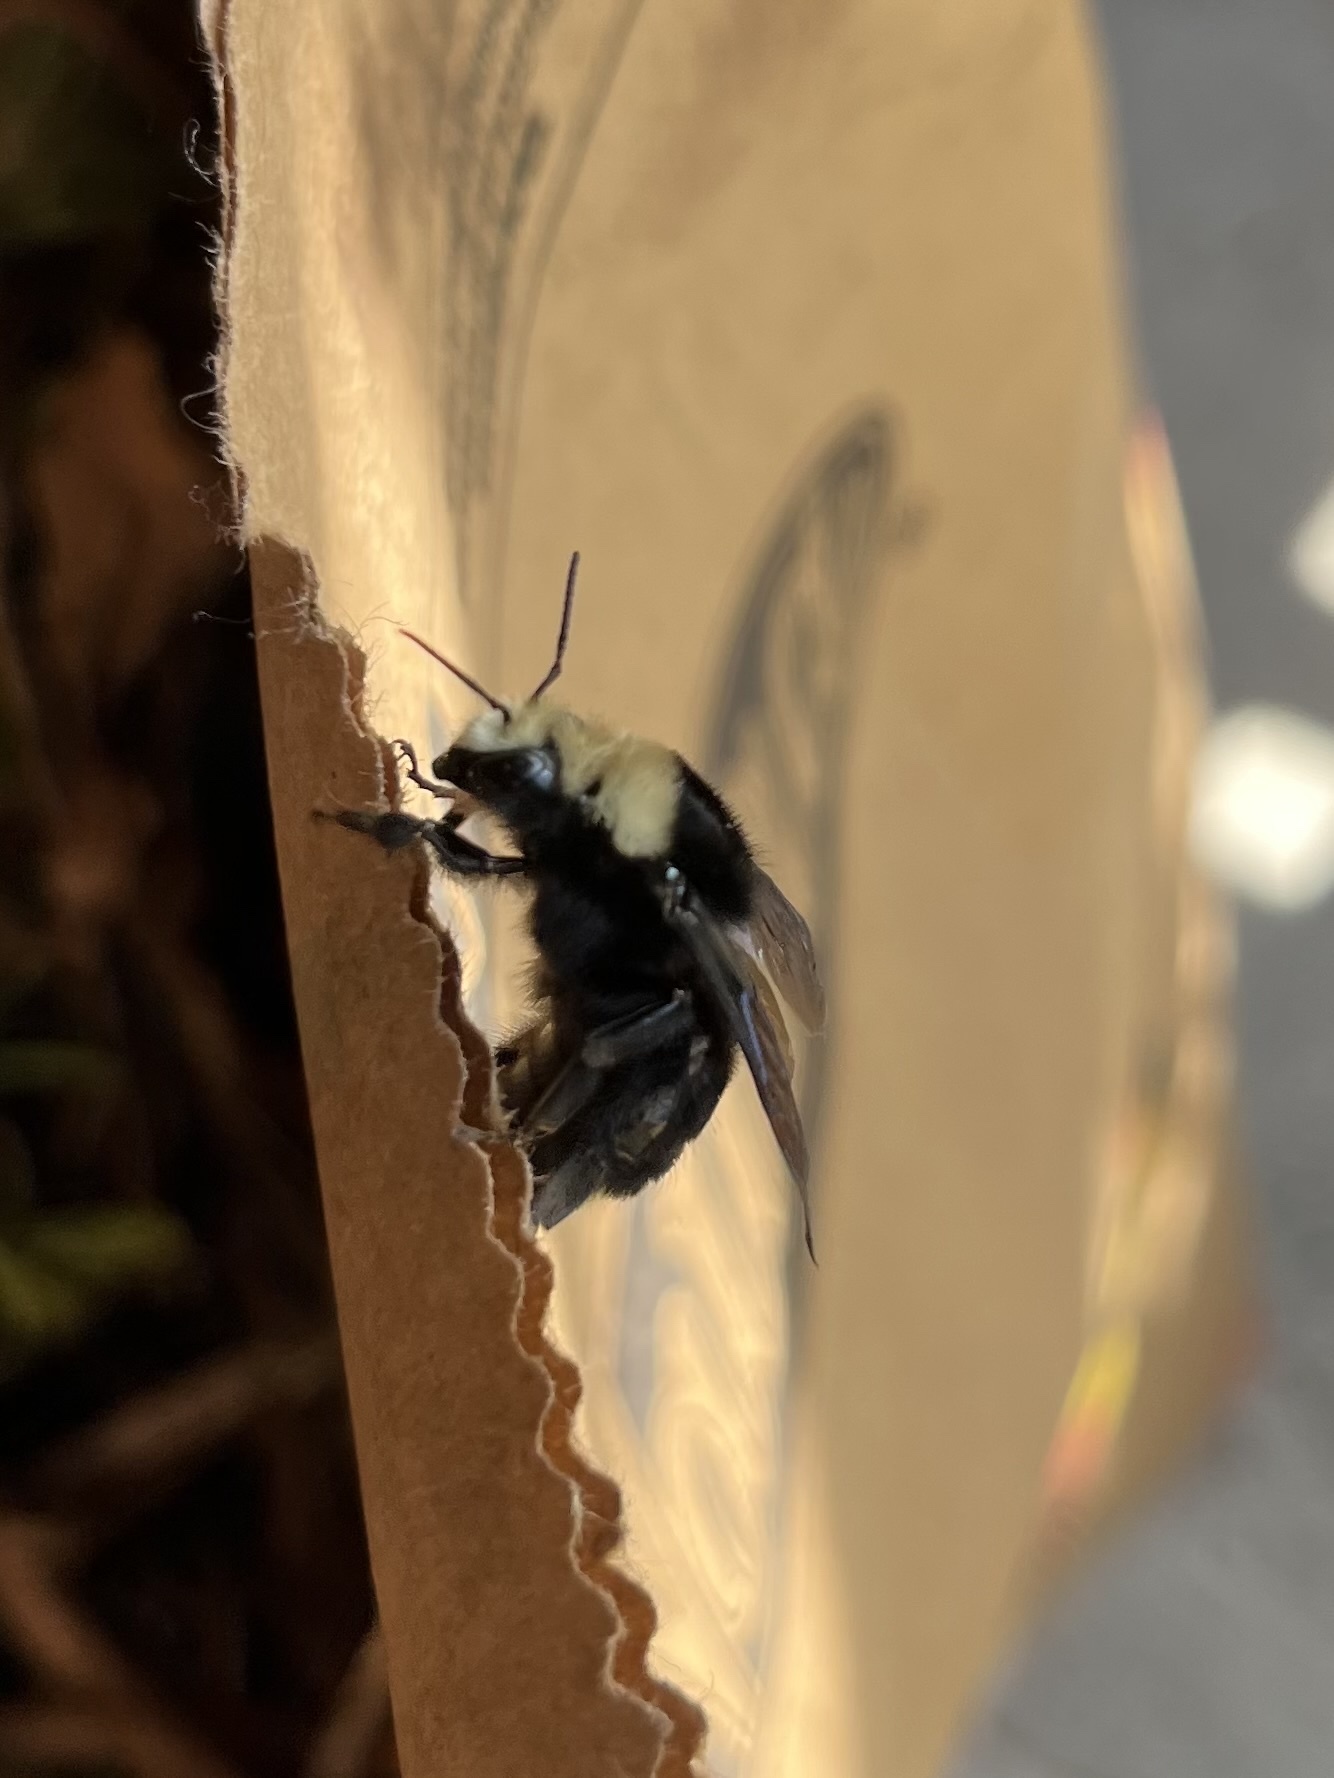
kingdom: Animalia
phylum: Arthropoda
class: Insecta
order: Hymenoptera
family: Apidae
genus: Bombus
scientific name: Bombus vosnesenskii
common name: Vosnesensky bumble bee
